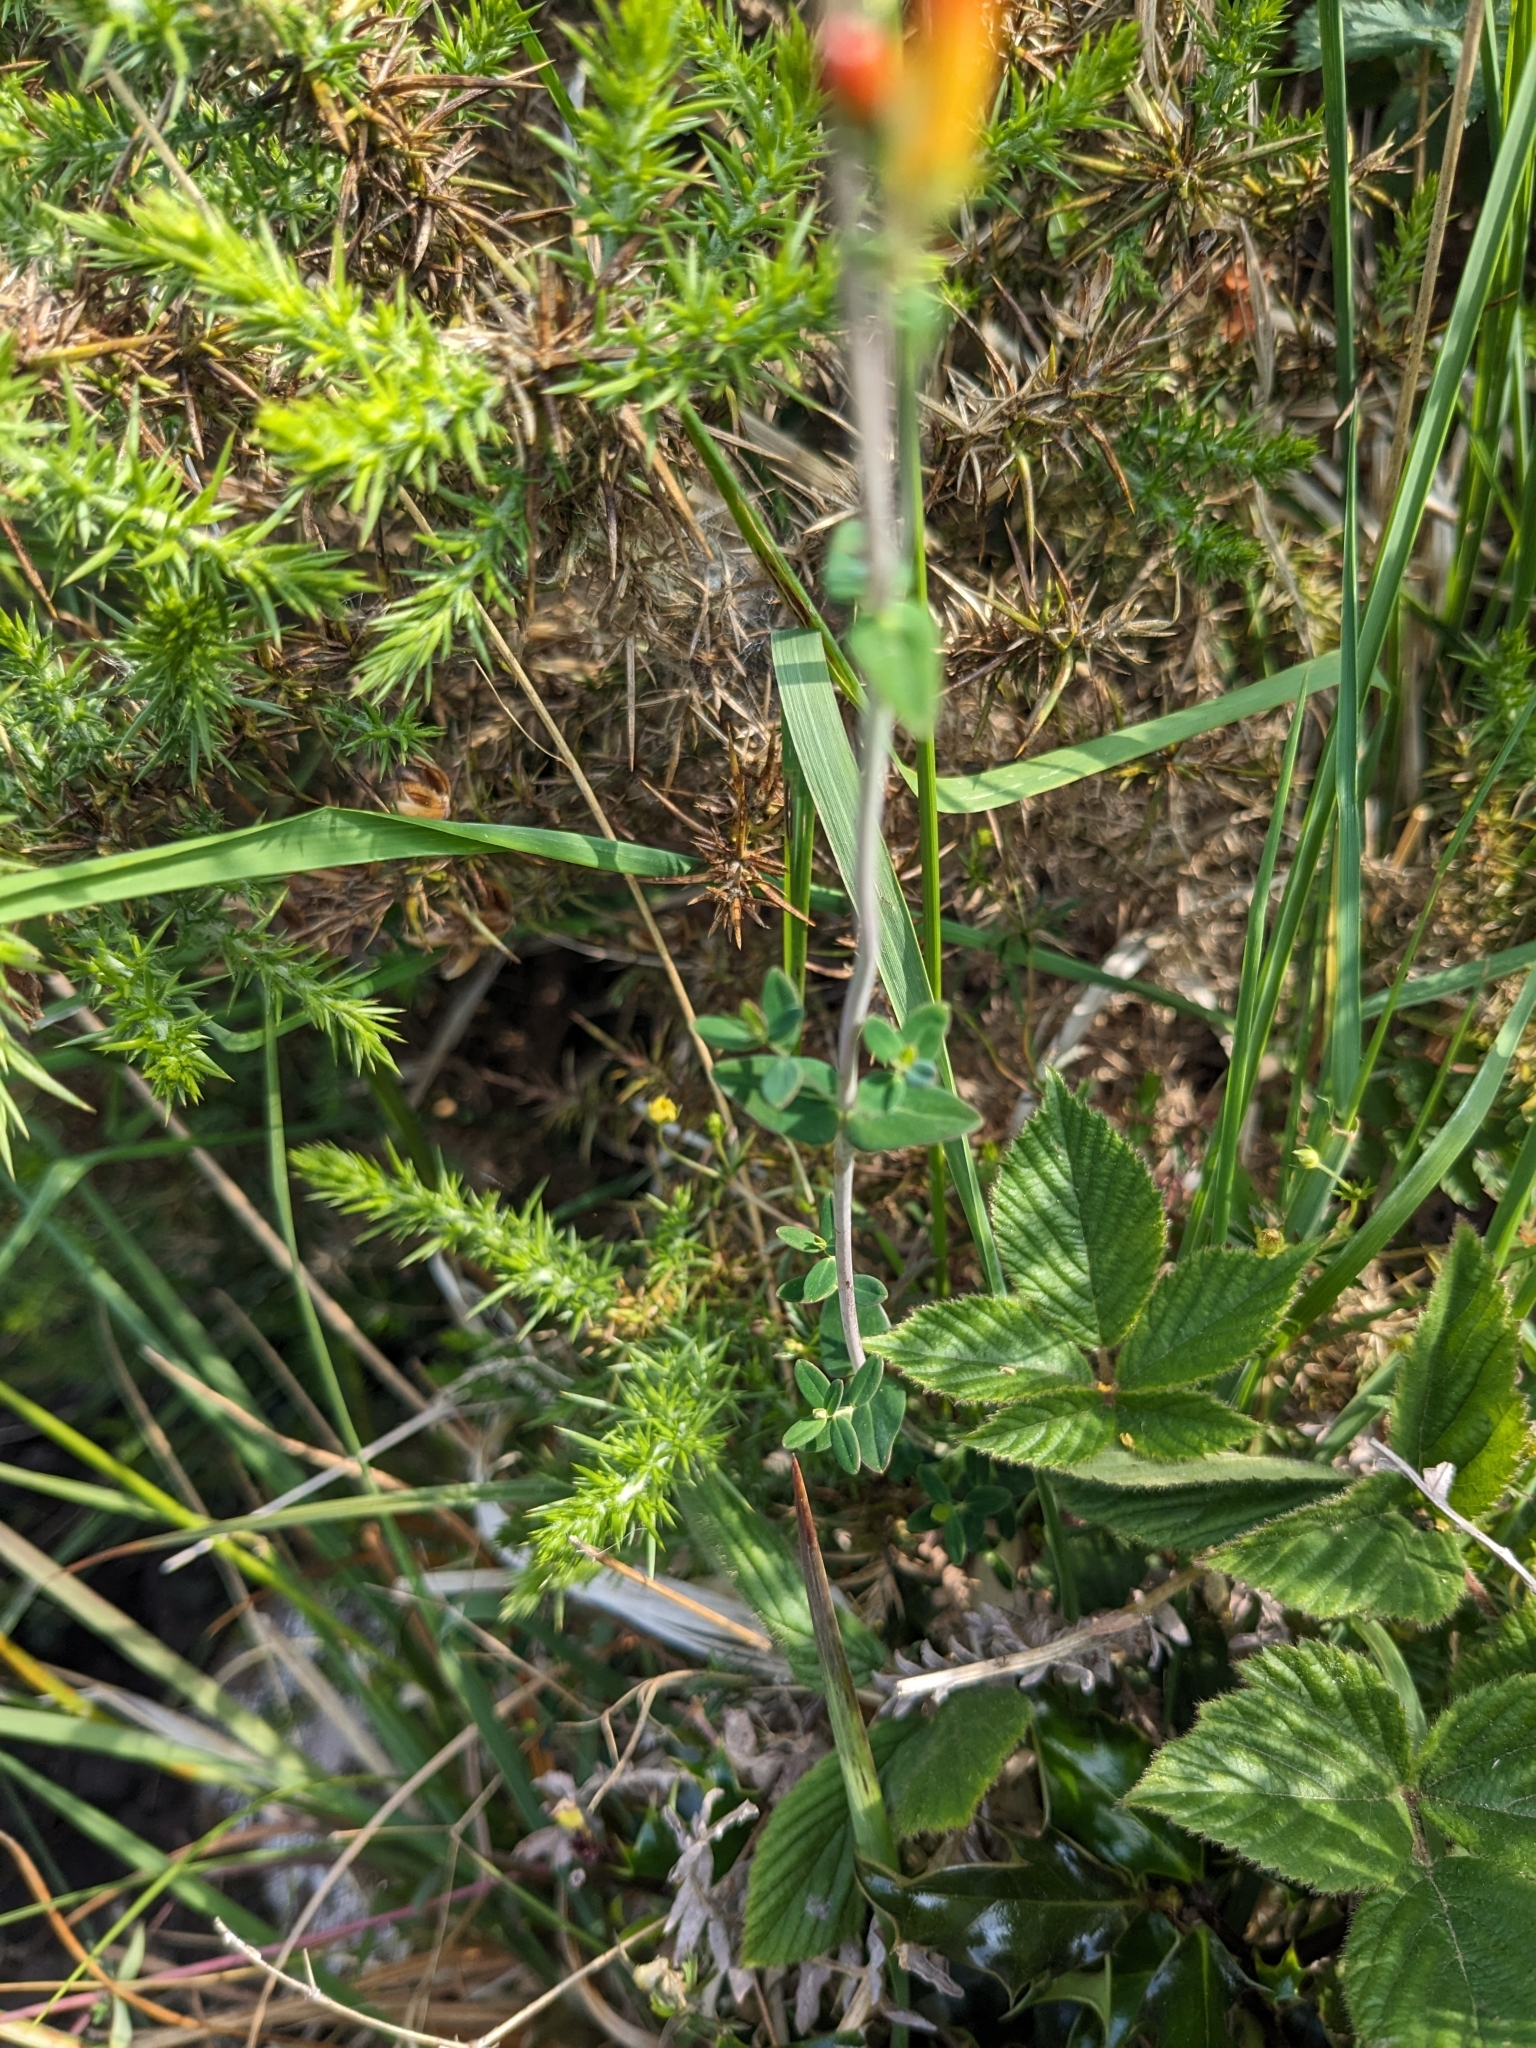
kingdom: Plantae
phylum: Tracheophyta
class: Magnoliopsida
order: Malpighiales
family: Hypericaceae
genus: Hypericum
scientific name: Hypericum pulchrum
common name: Slender st. john's-wort
